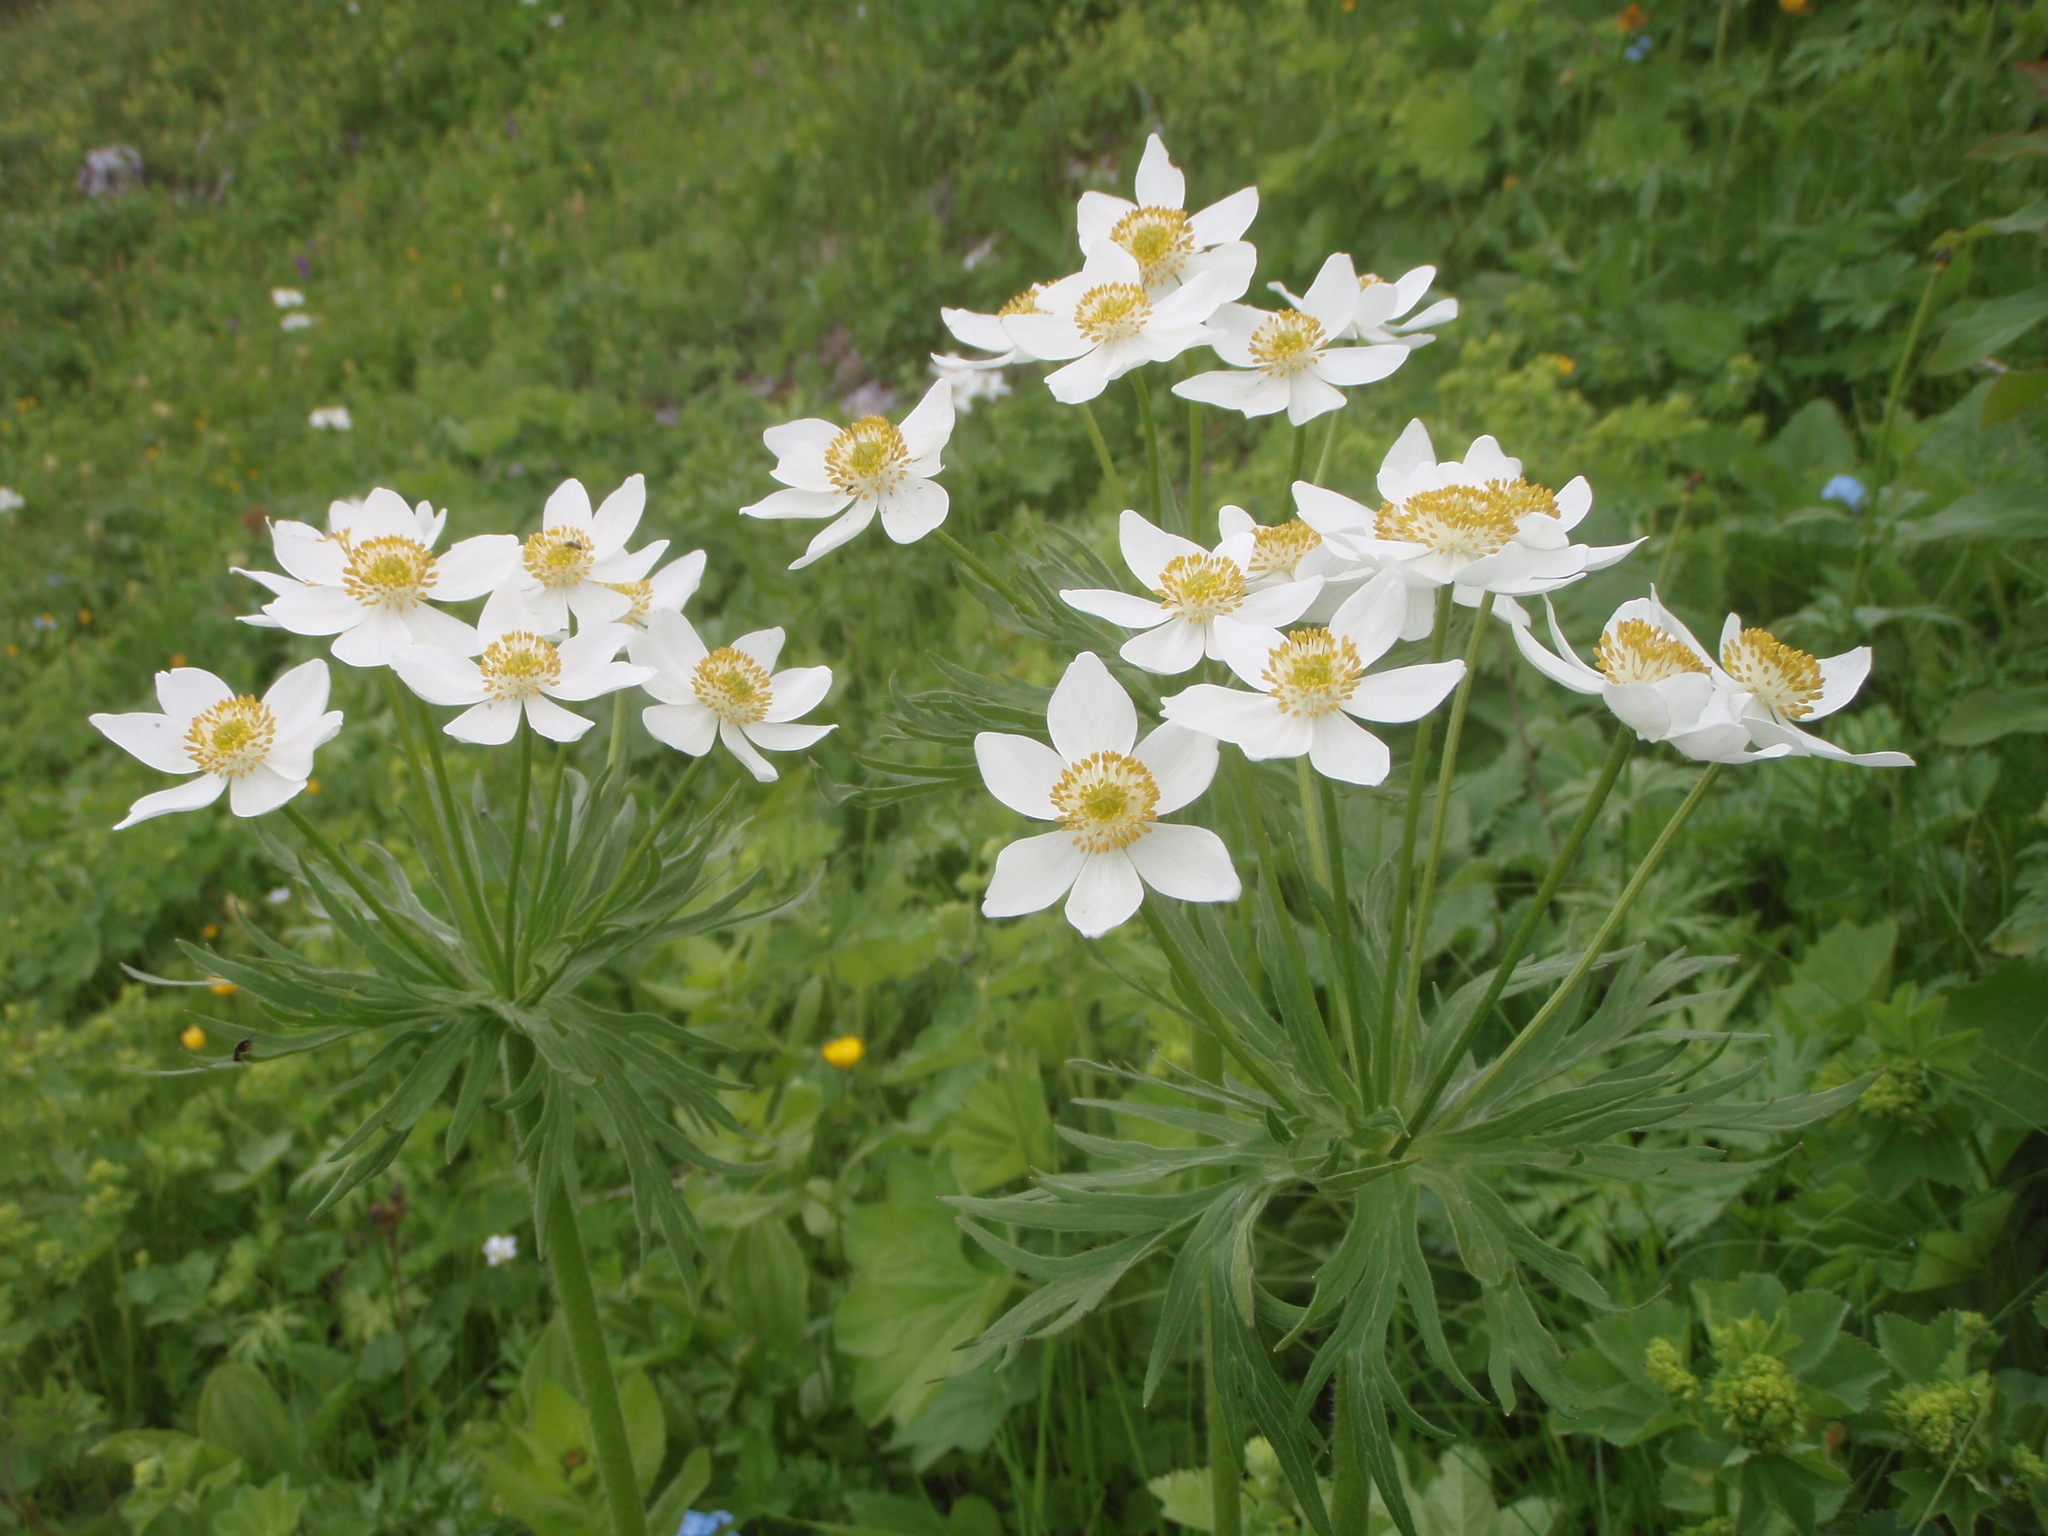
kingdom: Plantae
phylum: Tracheophyta
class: Magnoliopsida
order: Ranunculales
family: Ranunculaceae
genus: Anemonastrum
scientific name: Anemonastrum narcissiflorum
